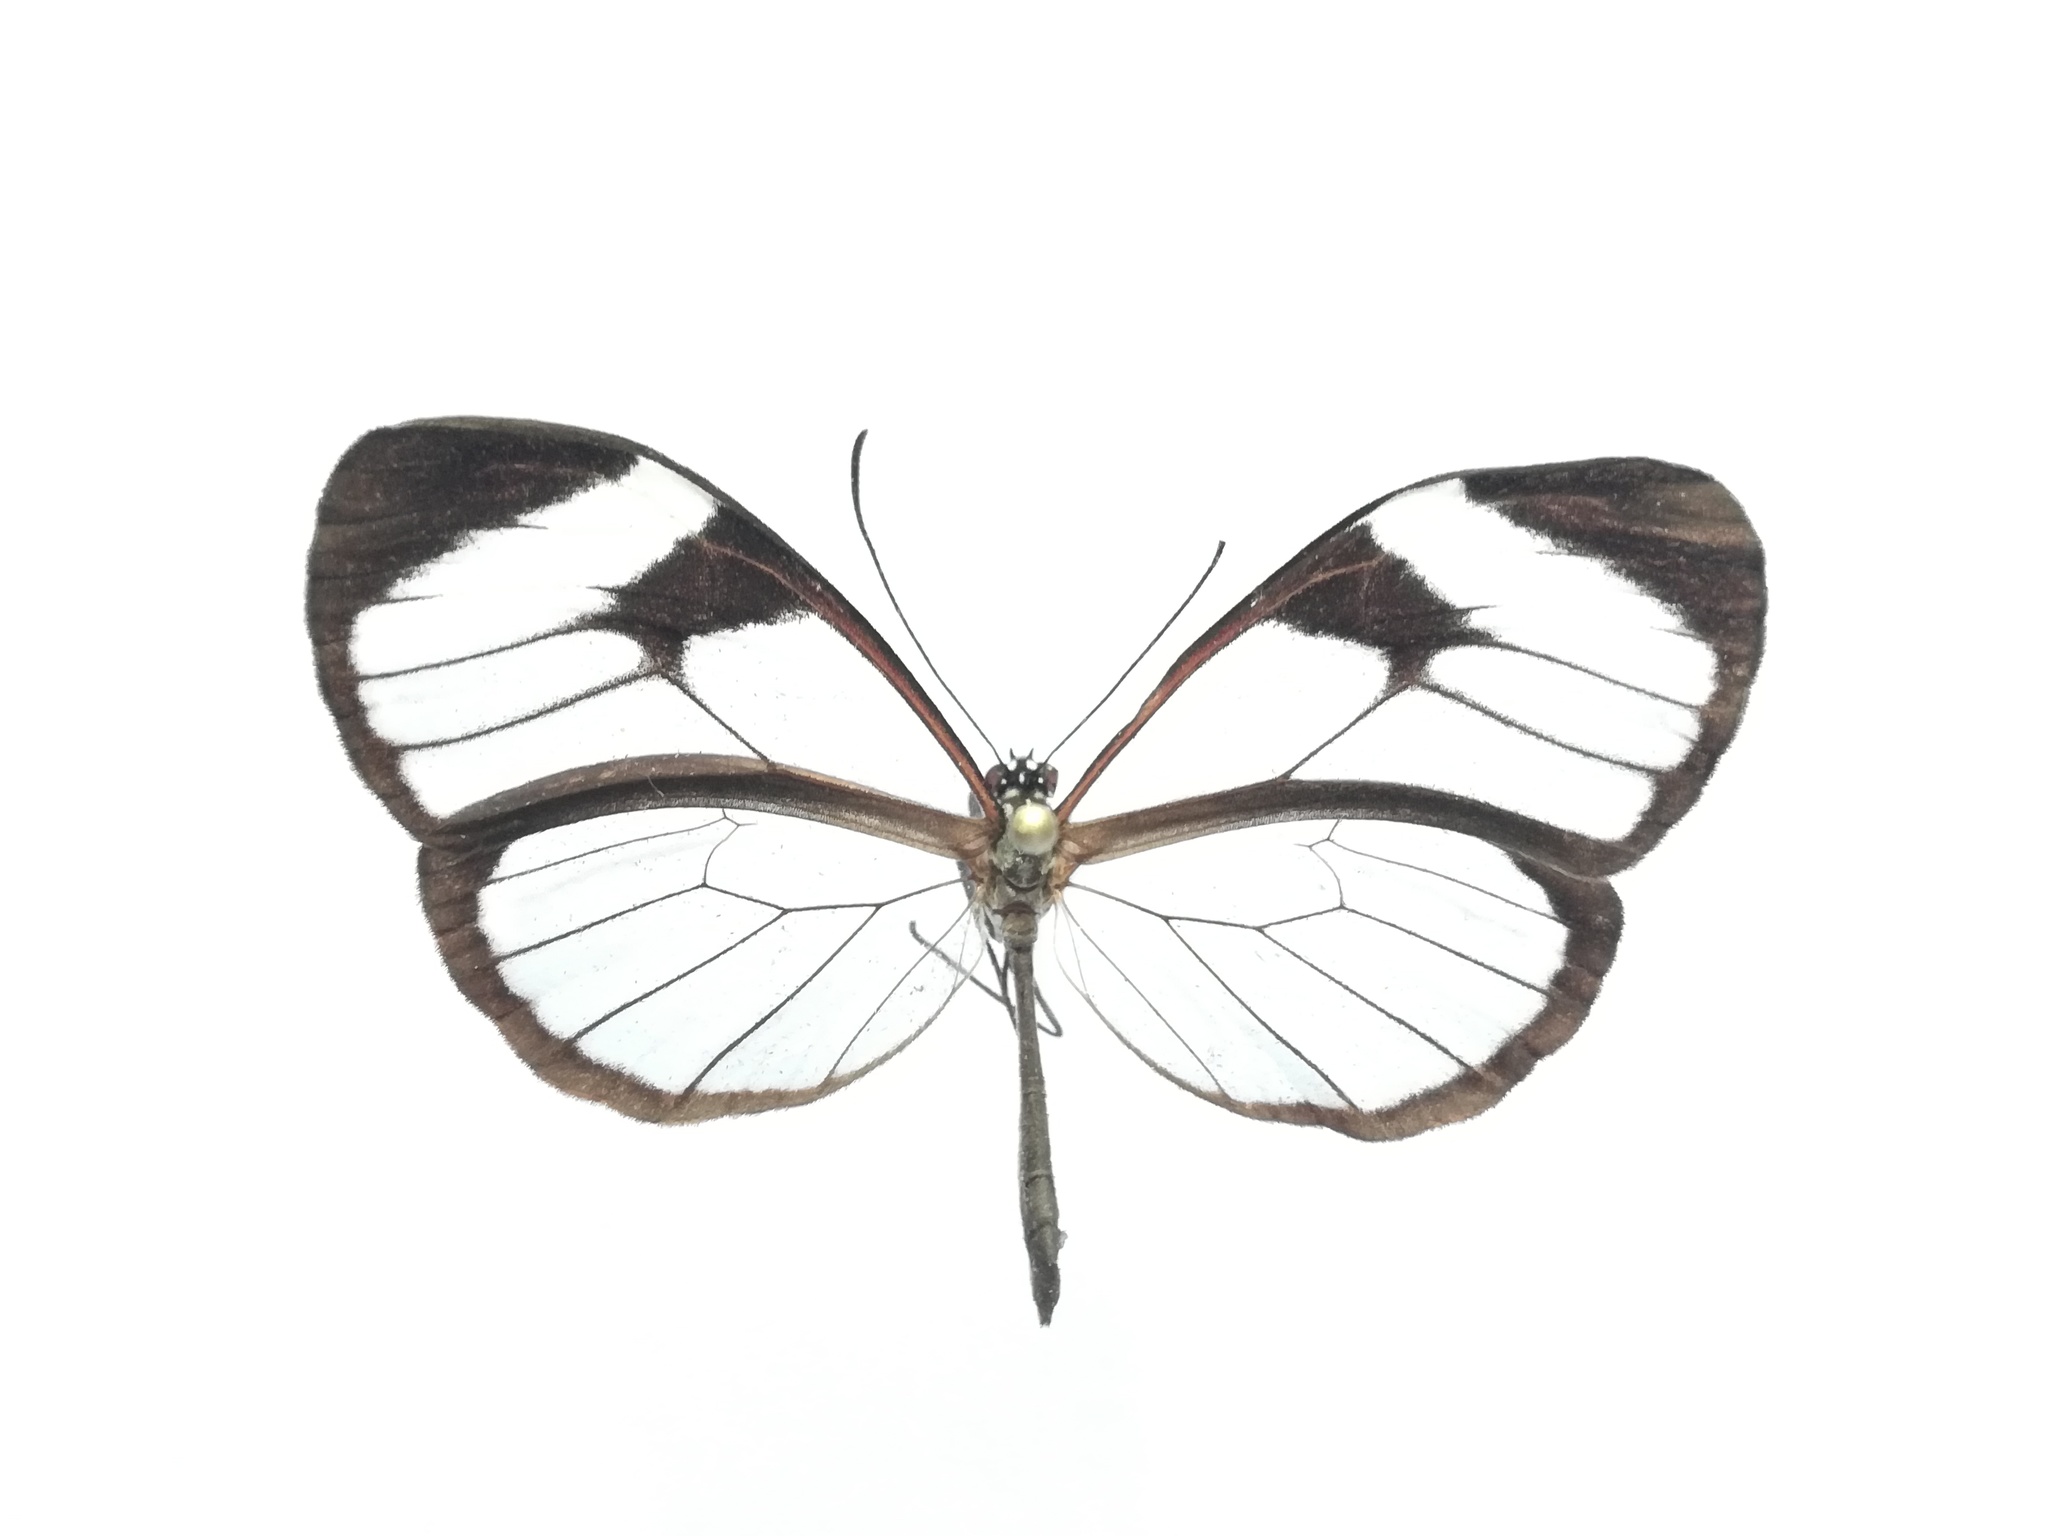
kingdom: Animalia
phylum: Arthropoda
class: Insecta
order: Lepidoptera
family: Nymphalidae
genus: Pteronymia
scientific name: Pteronymia cotytto
